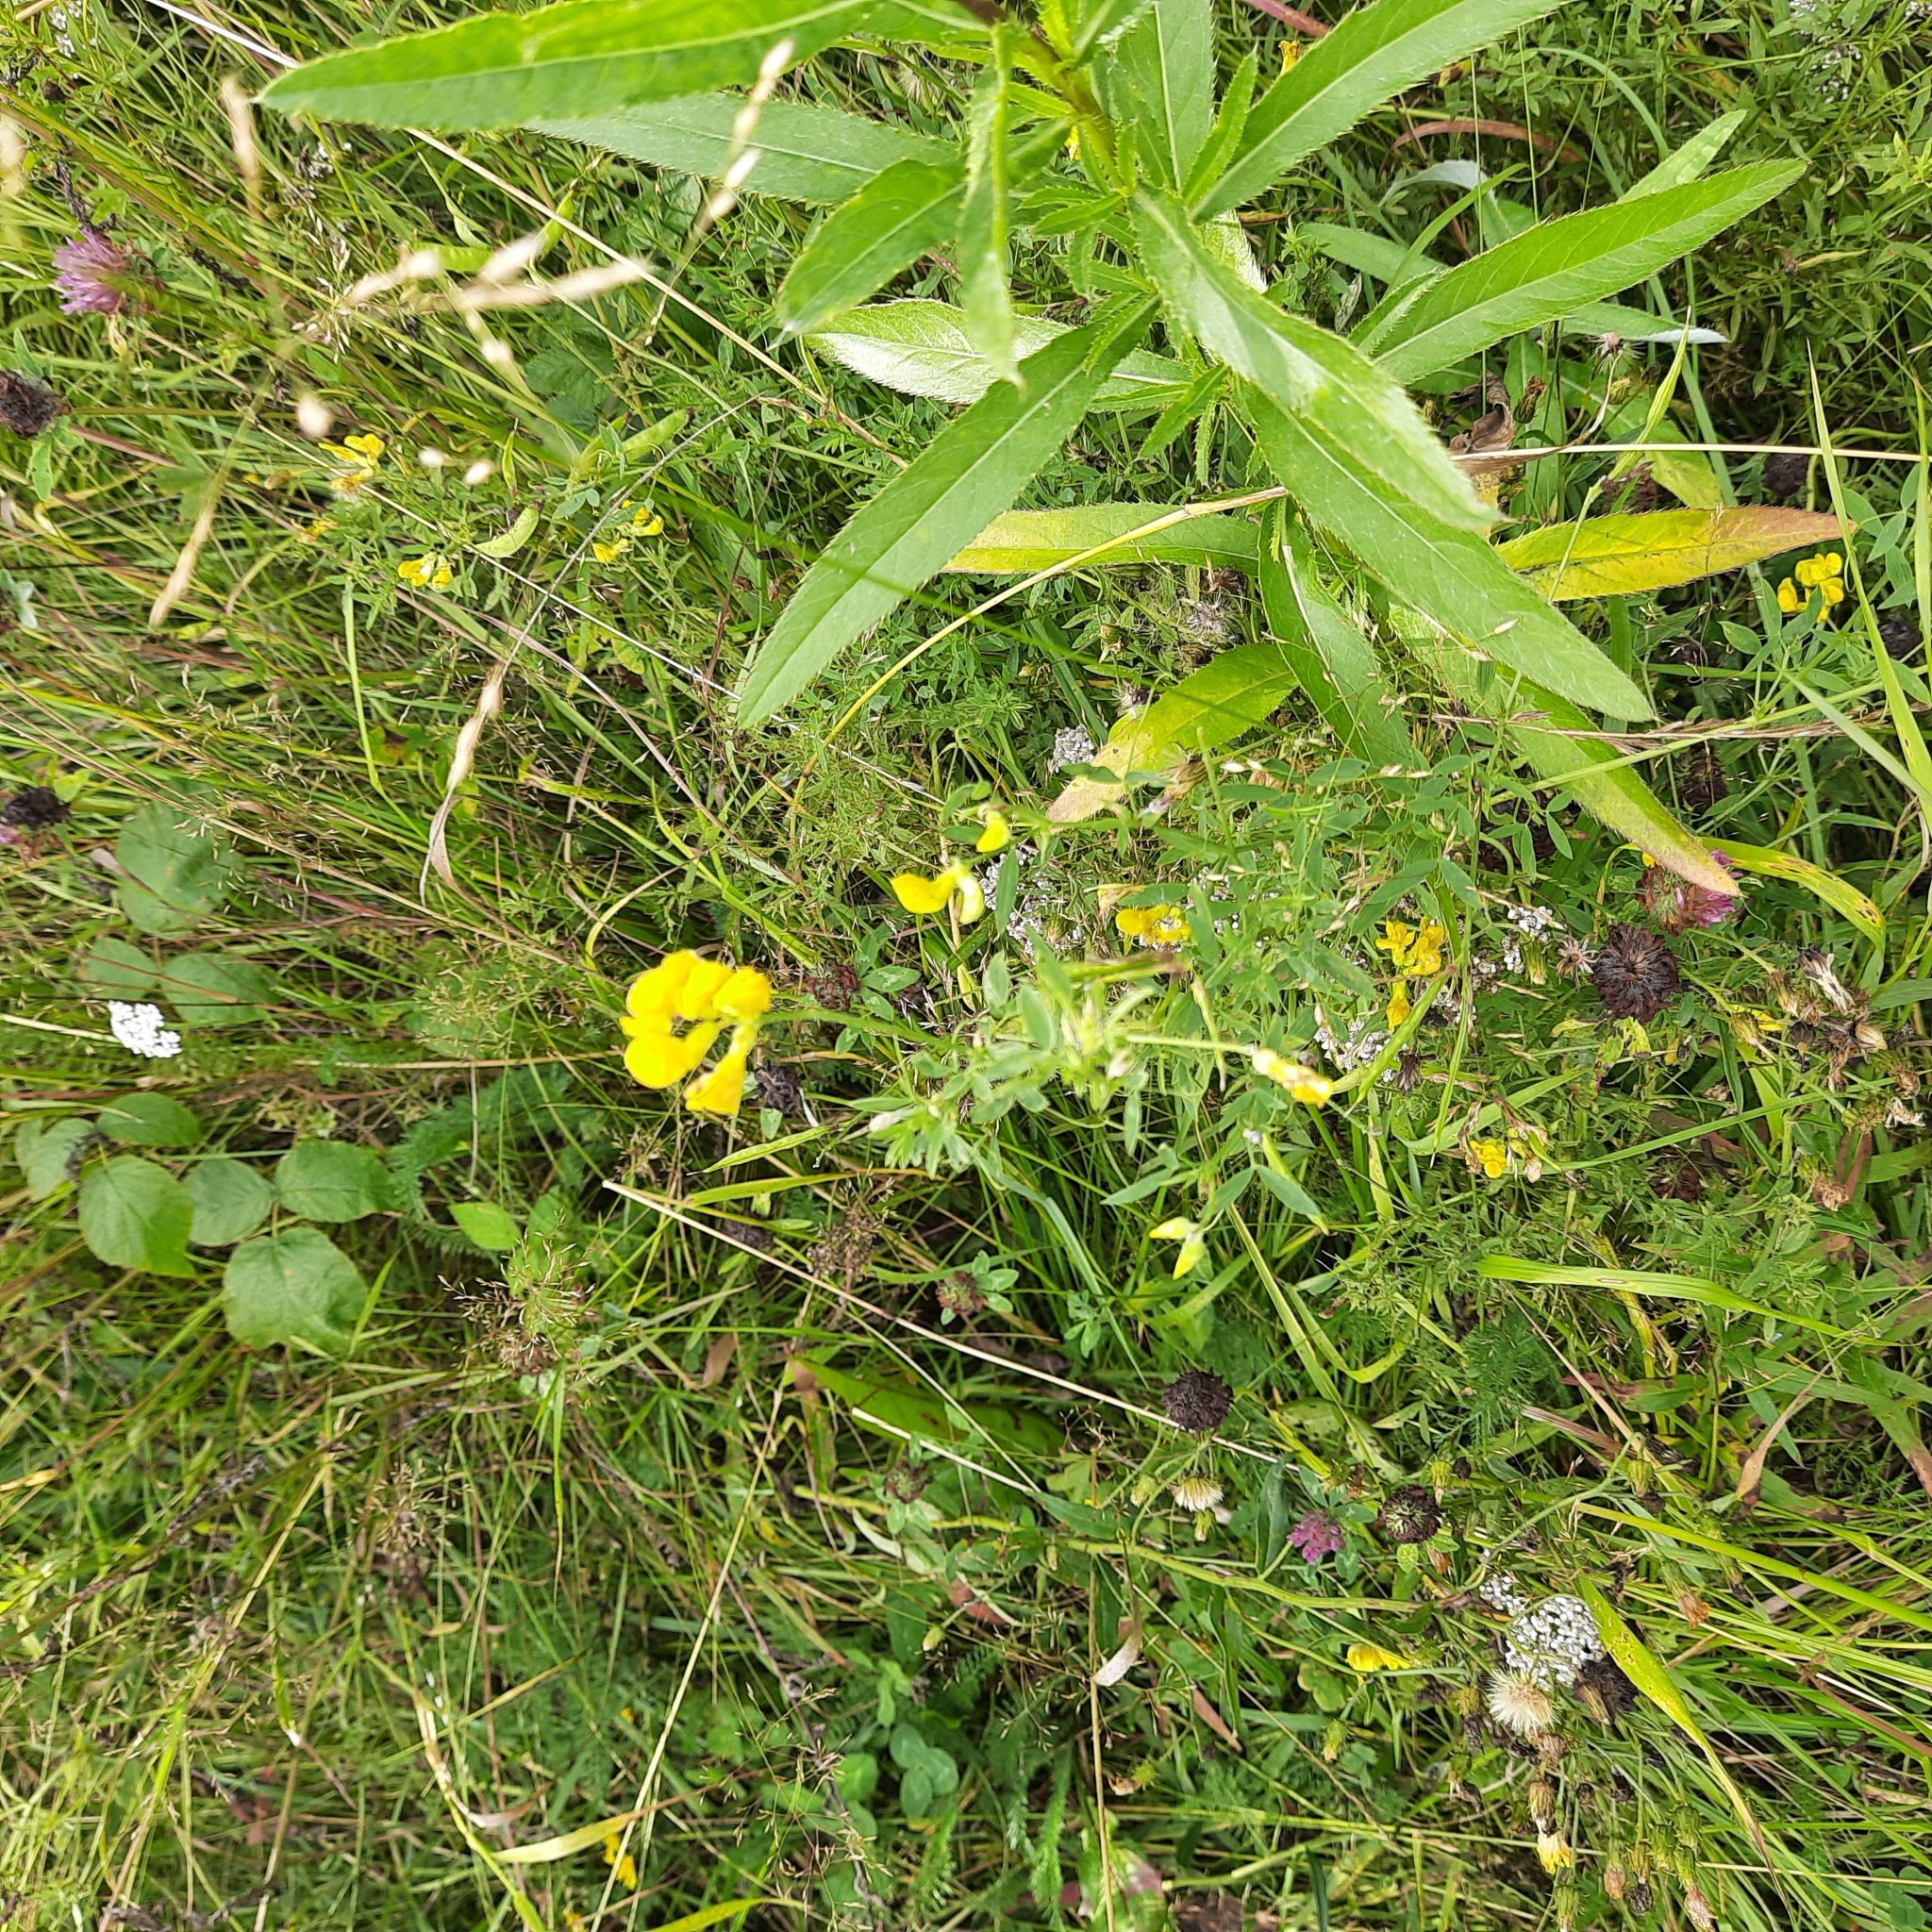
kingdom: Plantae
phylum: Tracheophyta
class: Magnoliopsida
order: Fabales
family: Fabaceae
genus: Lathyrus
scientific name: Lathyrus pratensis
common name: Meadow vetchling
